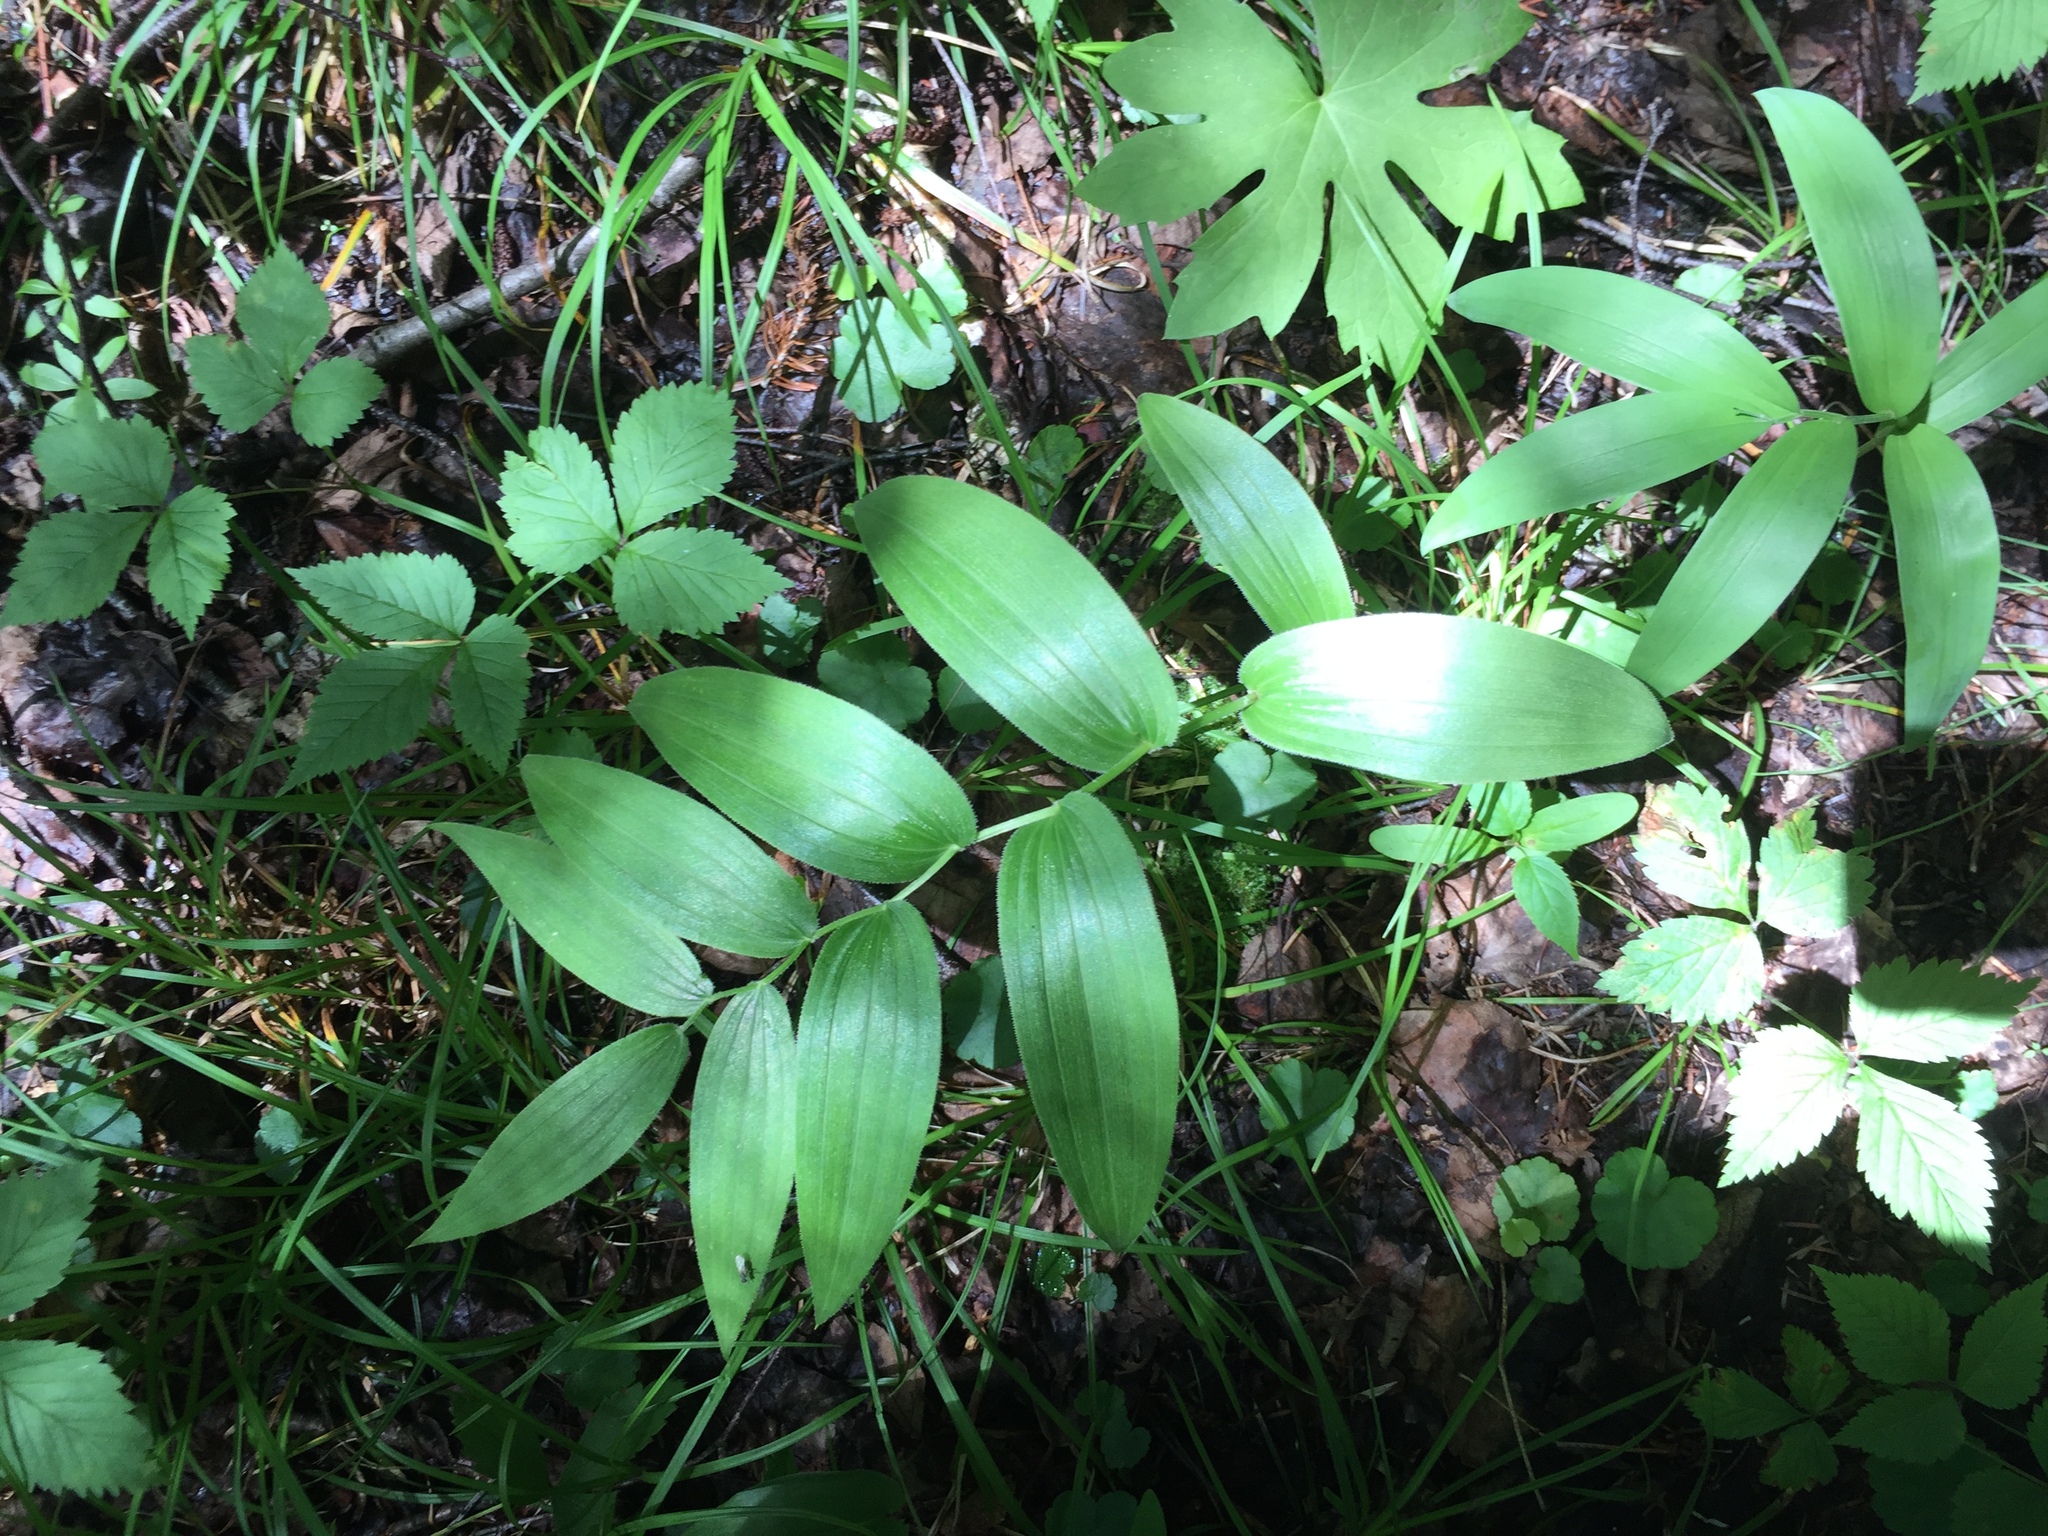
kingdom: Plantae
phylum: Tracheophyta
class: Liliopsida
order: Liliales
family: Liliaceae
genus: Streptopus
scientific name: Streptopus lanceolatus
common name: Rose mandarin
